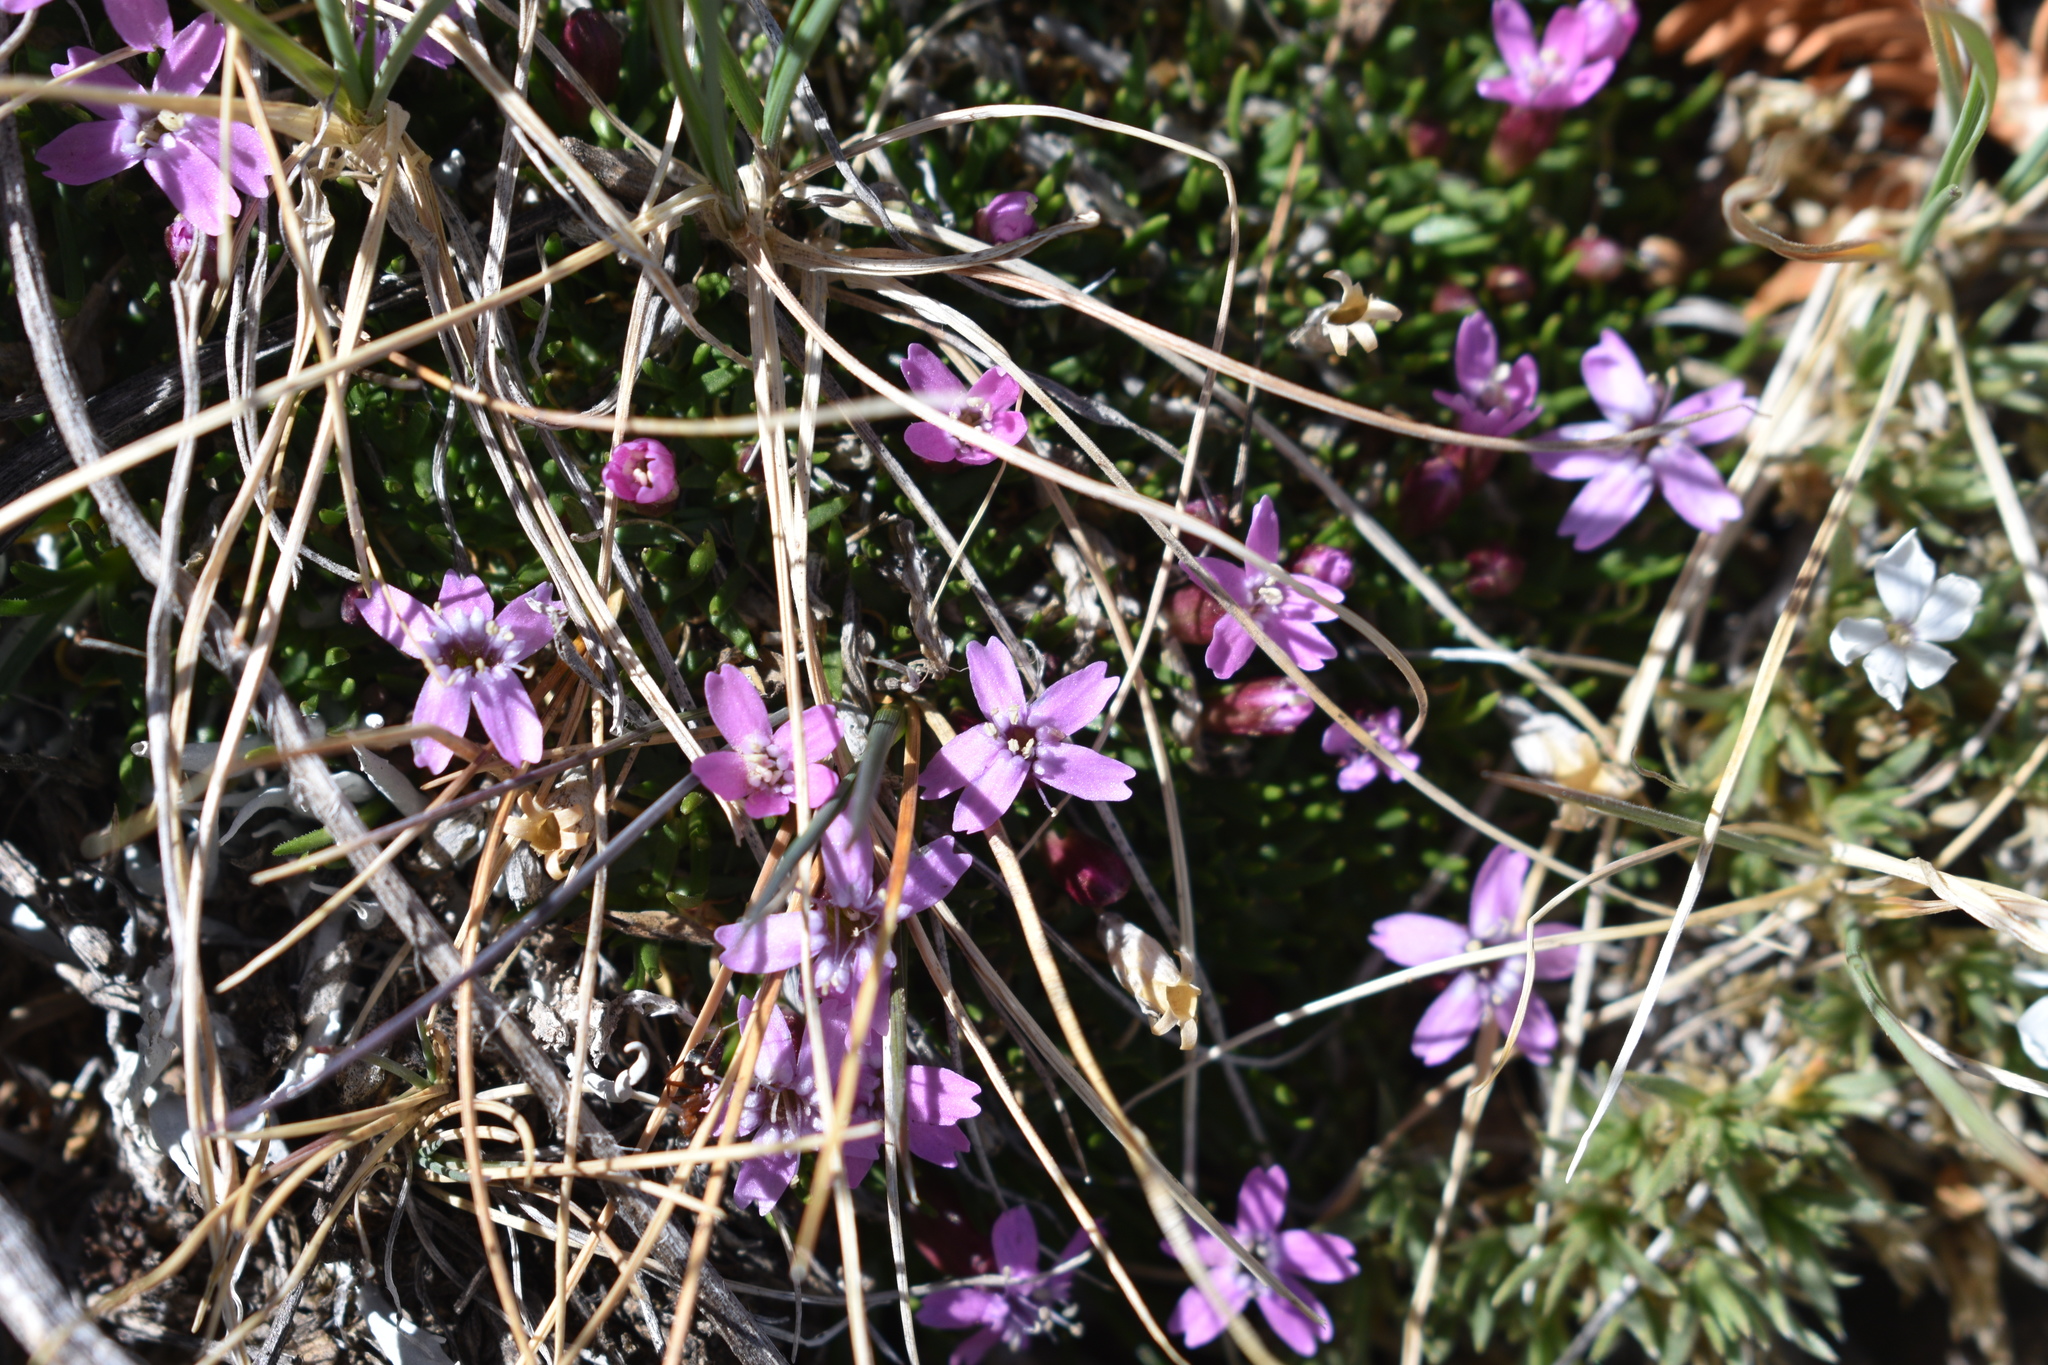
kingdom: Plantae
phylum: Tracheophyta
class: Magnoliopsida
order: Caryophyllales
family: Caryophyllaceae
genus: Silene
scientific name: Silene acaulis
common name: Moss campion
